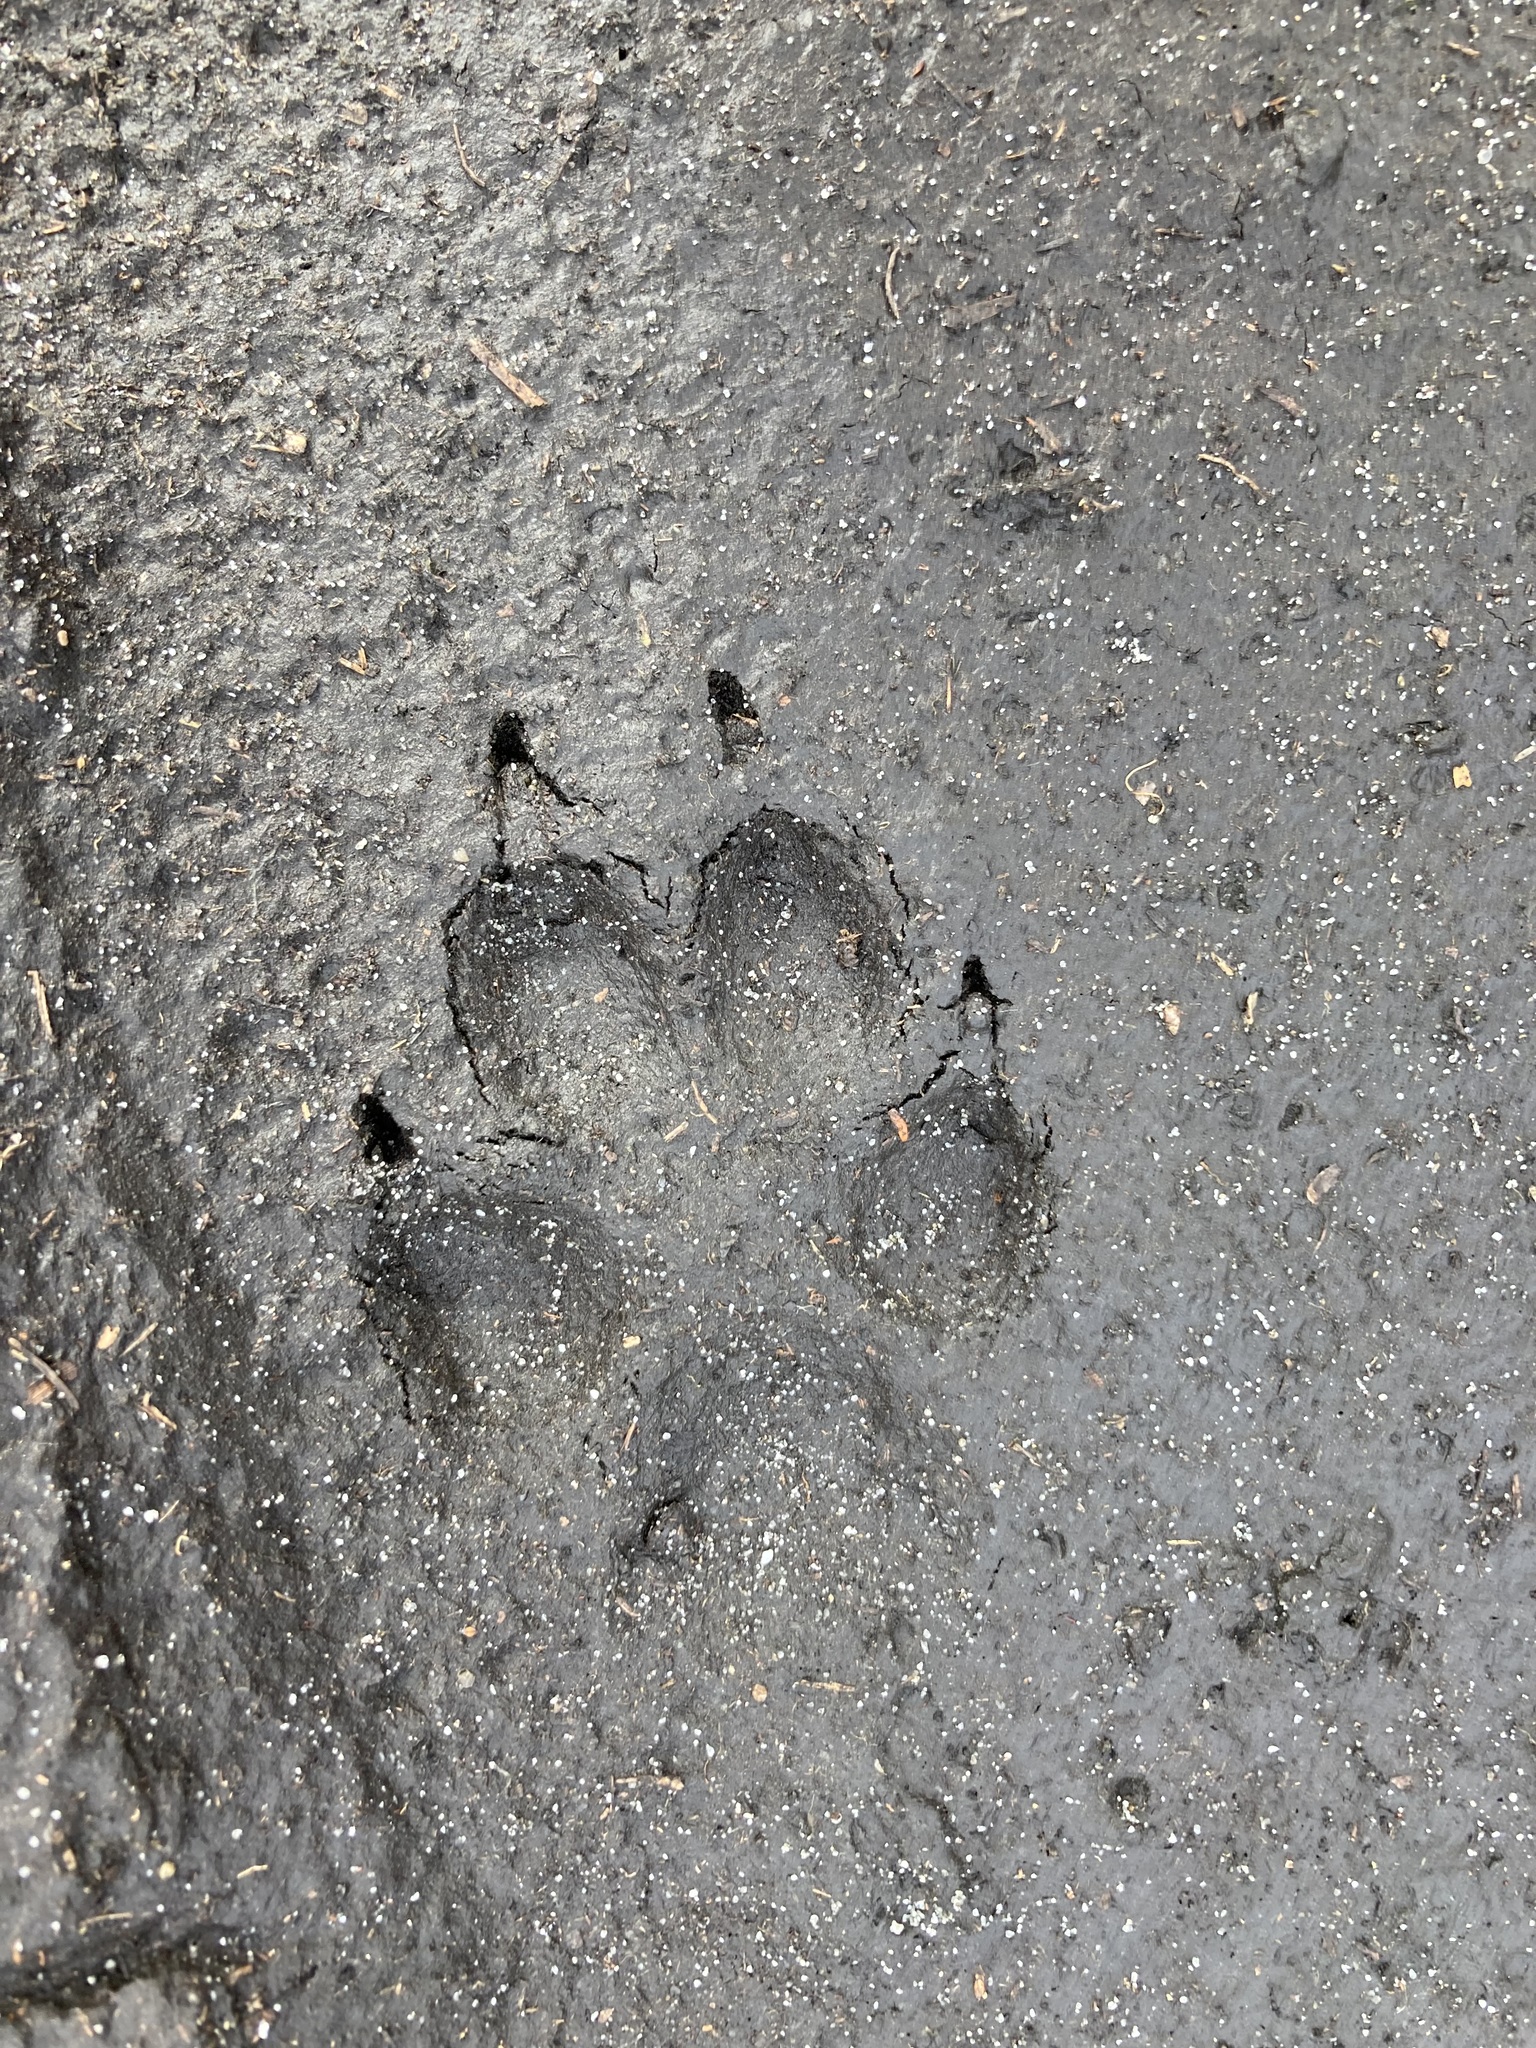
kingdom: Animalia
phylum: Chordata
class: Mammalia
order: Carnivora
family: Canidae
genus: Canis
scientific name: Canis lupus
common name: Gray wolf
